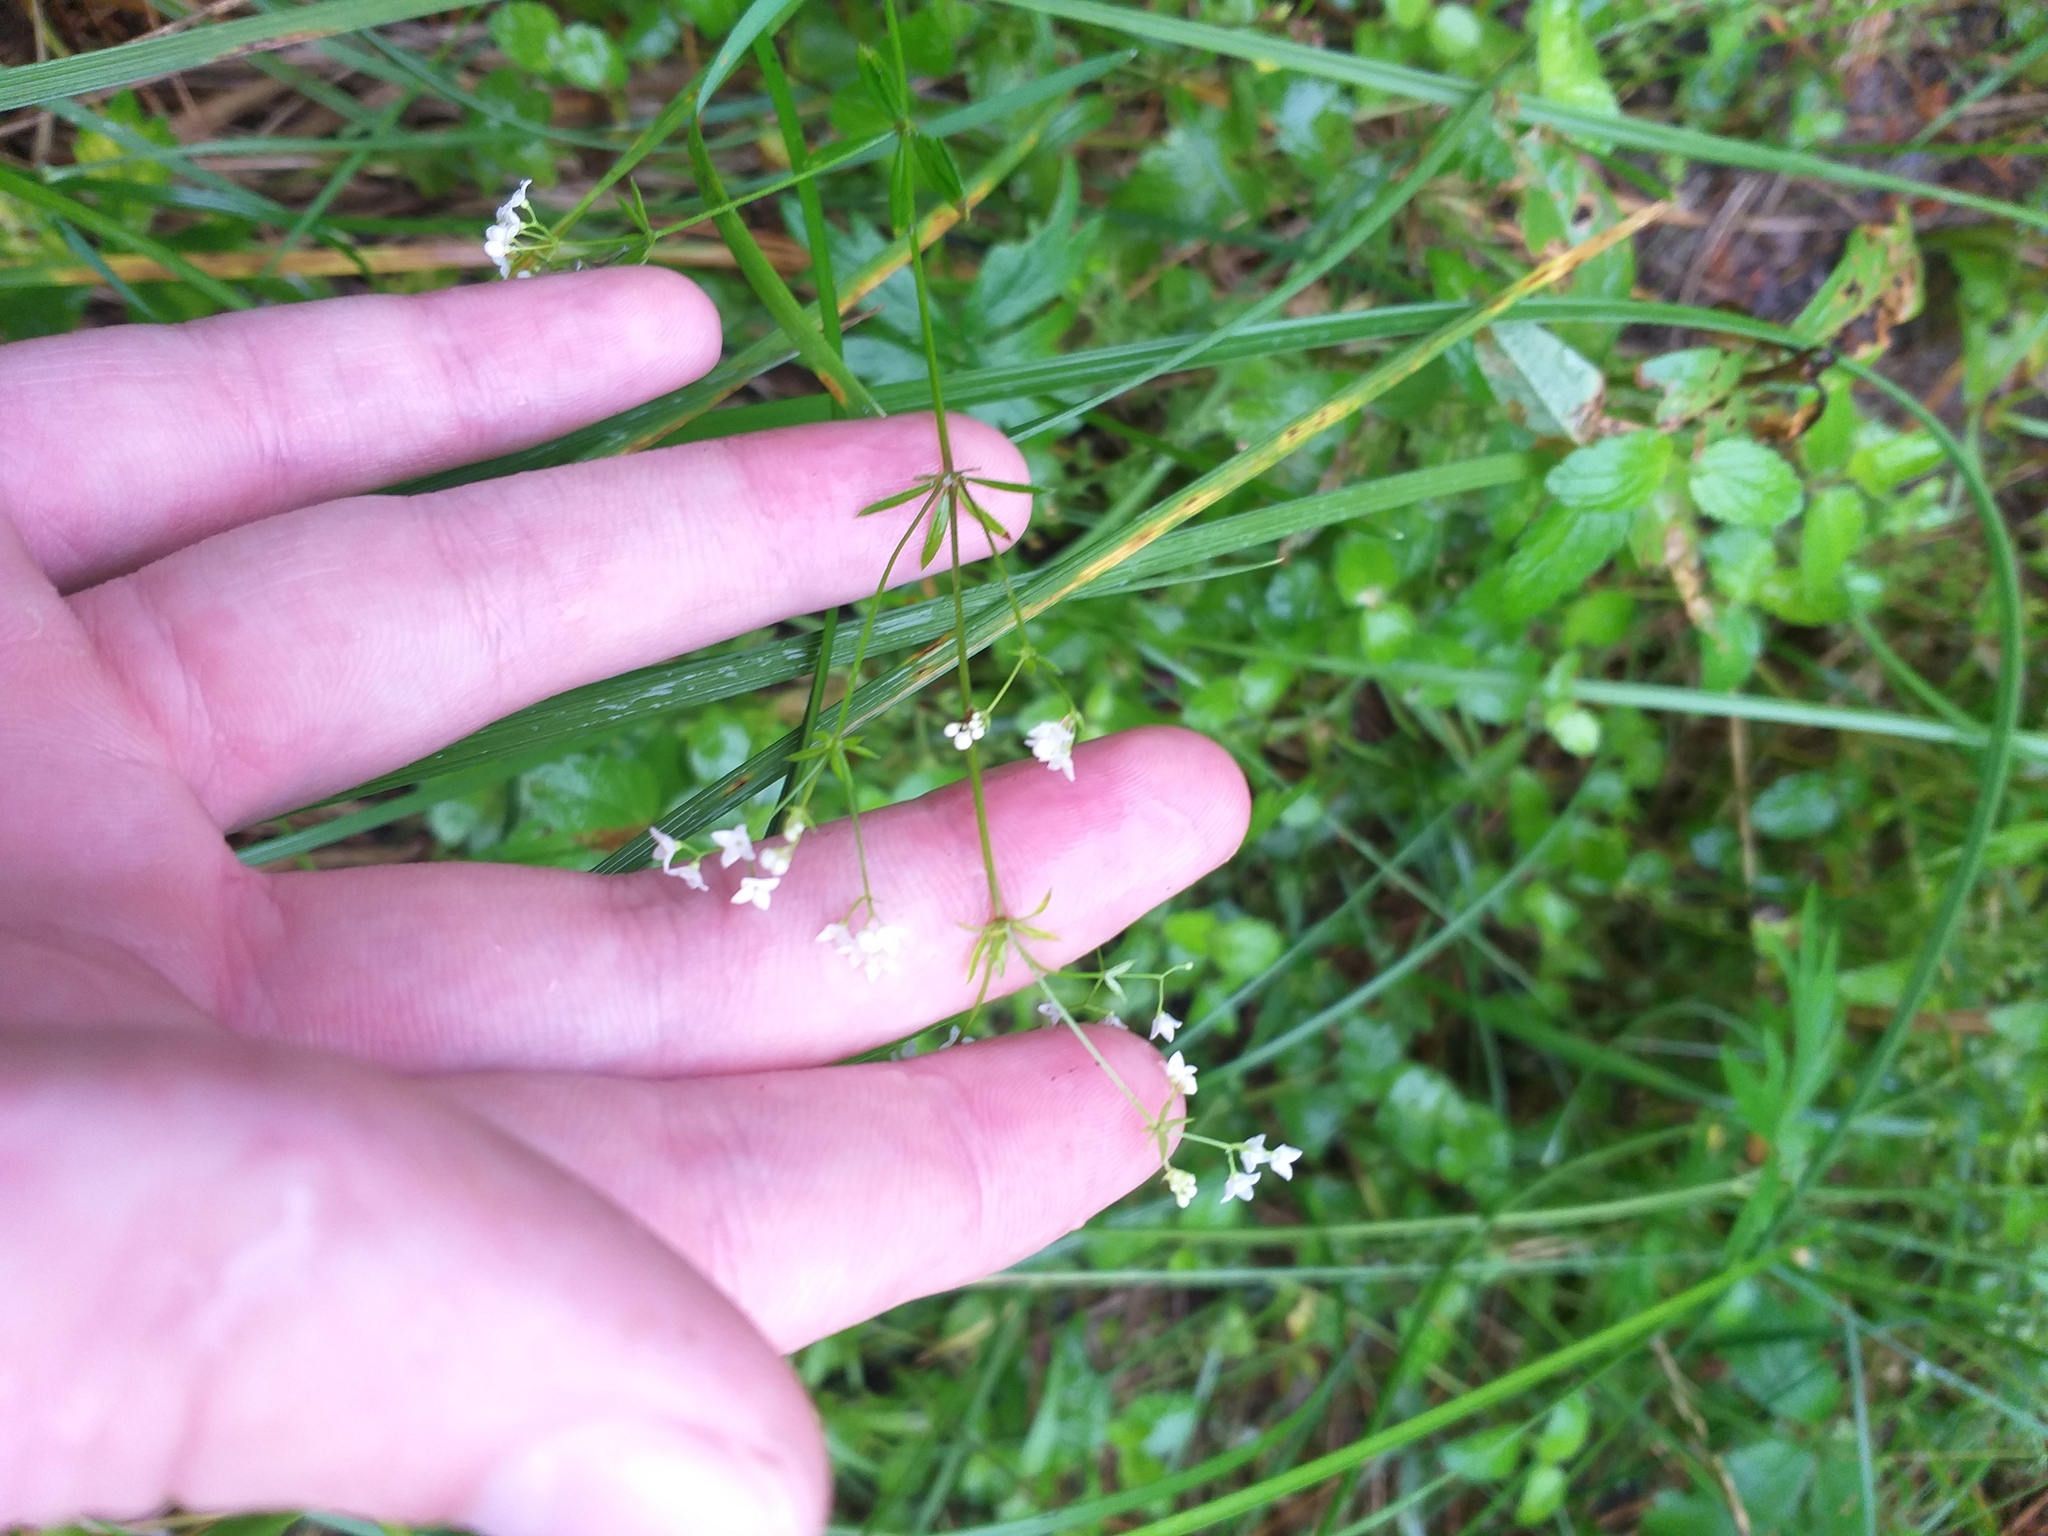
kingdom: Plantae
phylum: Tracheophyta
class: Magnoliopsida
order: Gentianales
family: Rubiaceae
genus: Galium
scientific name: Galium uliginosum
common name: Fen bedstraw
